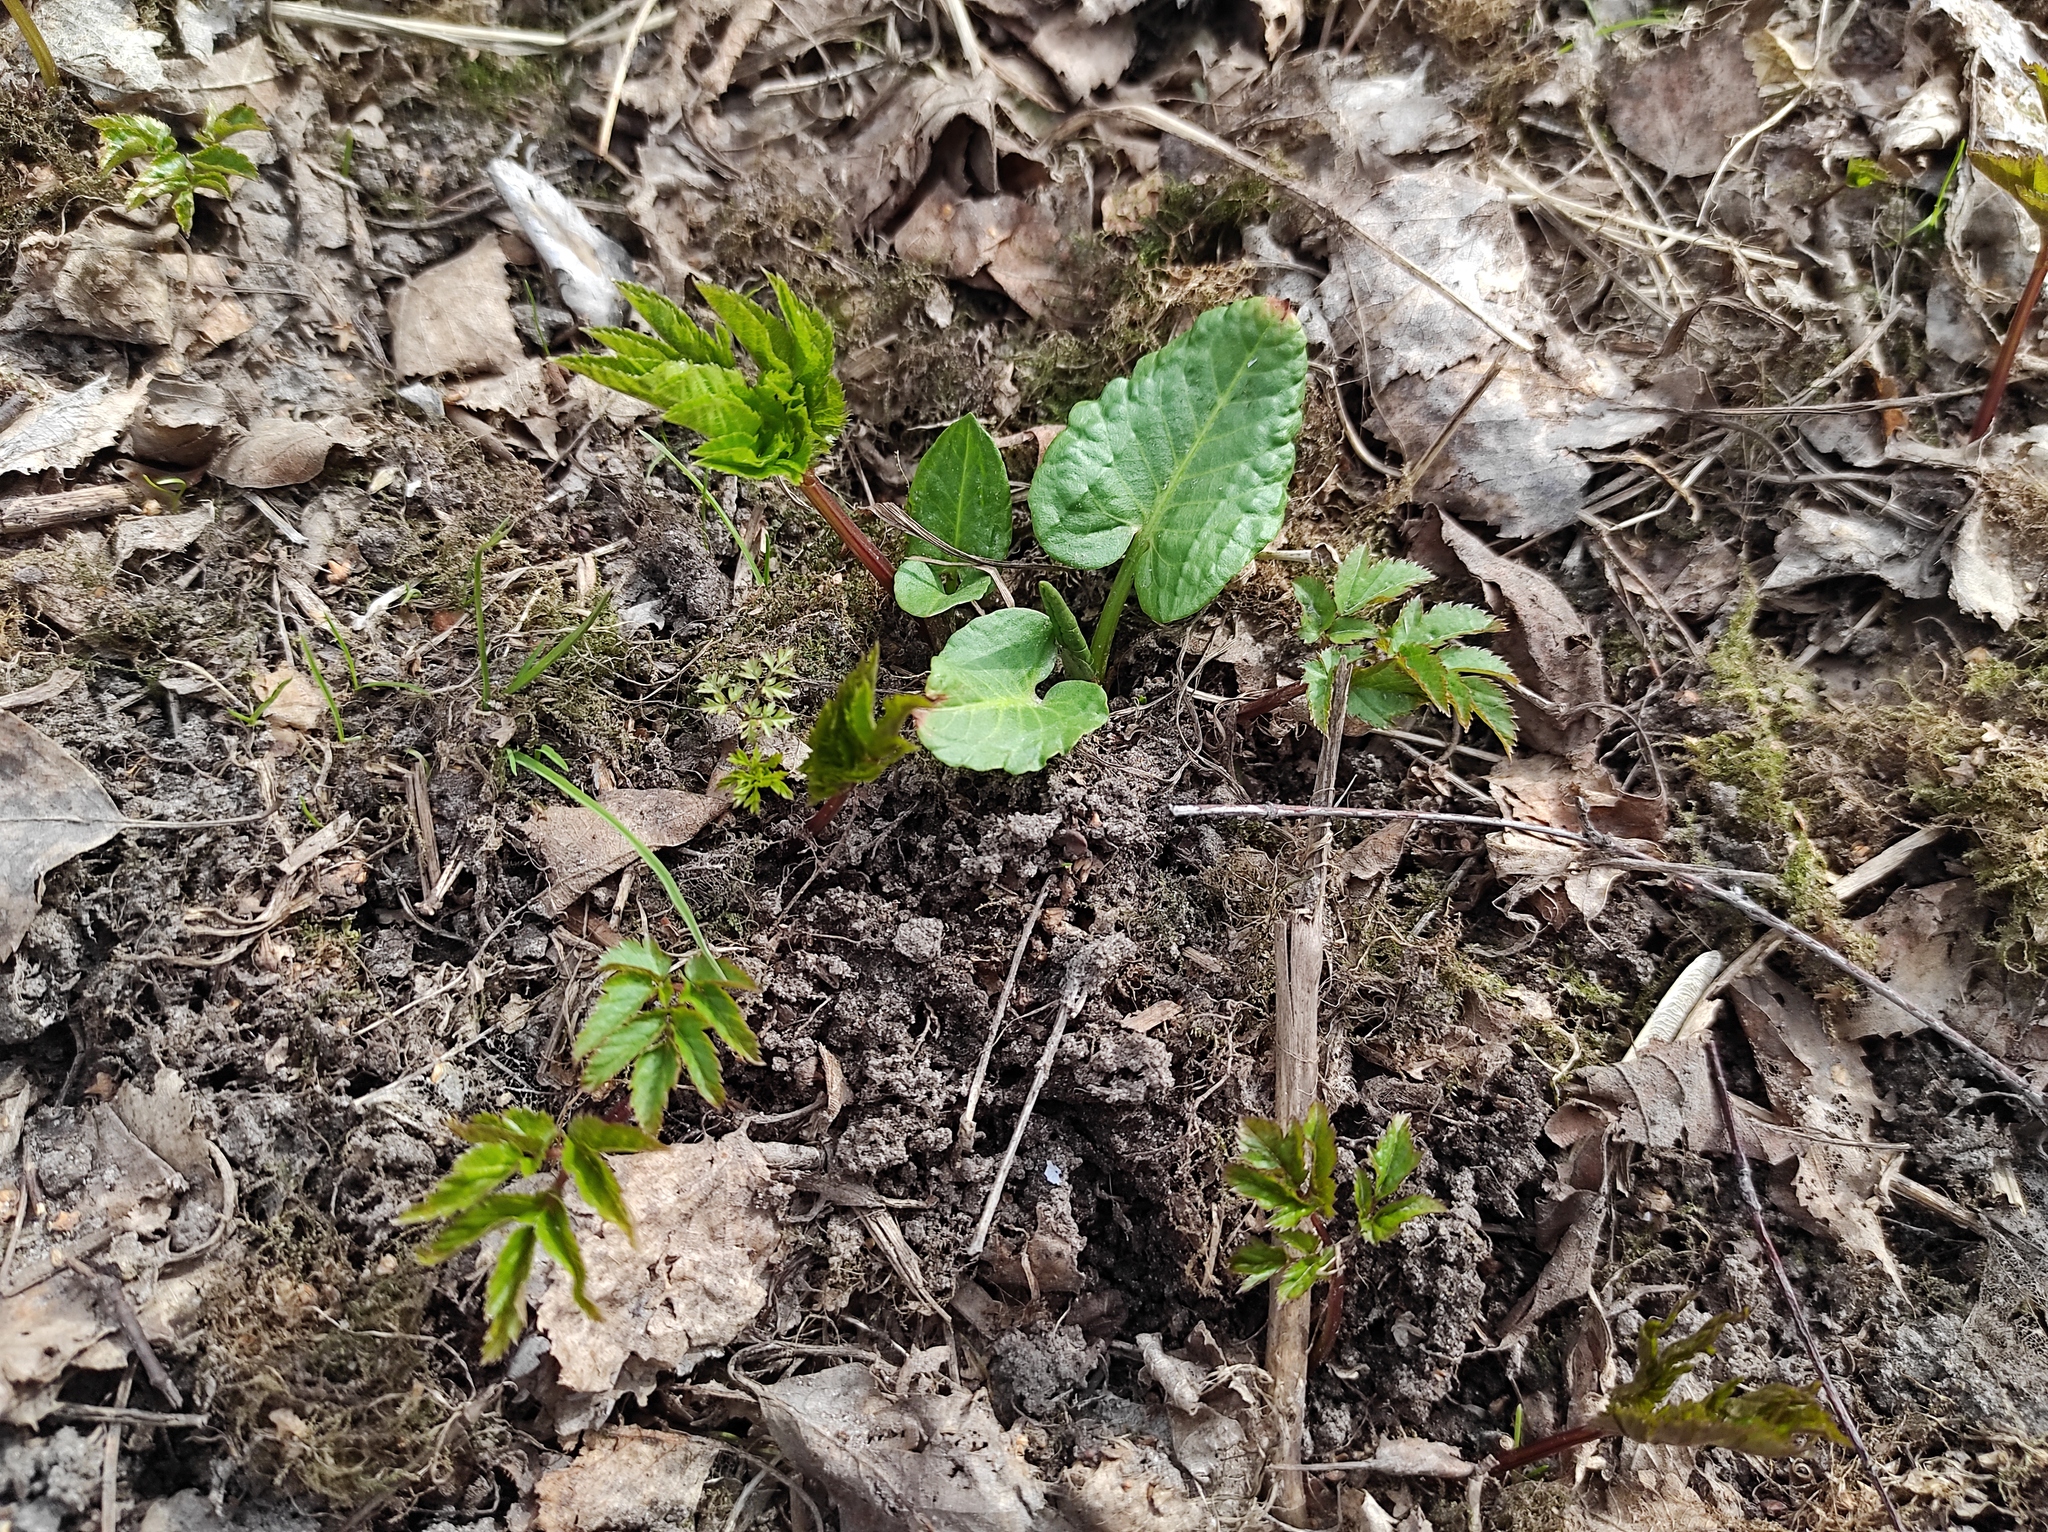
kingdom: Plantae
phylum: Tracheophyta
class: Magnoliopsida
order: Apiales
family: Apiaceae
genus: Aegopodium
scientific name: Aegopodium podagraria
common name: Ground-elder
